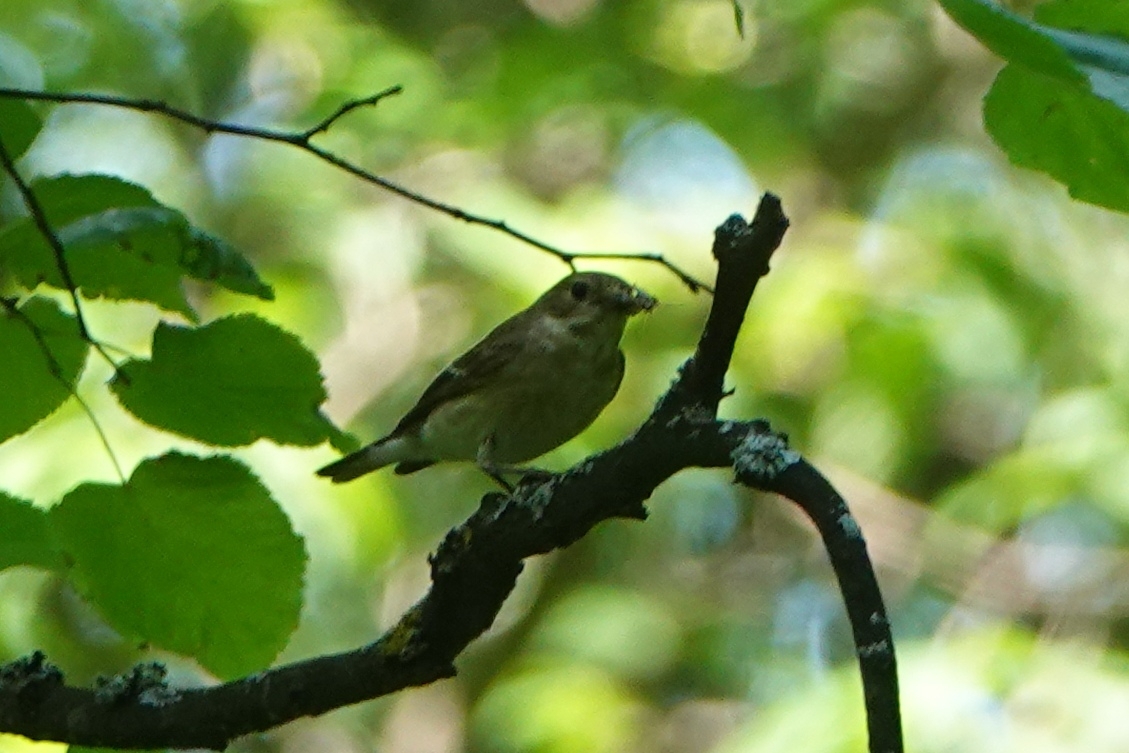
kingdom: Animalia
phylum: Chordata
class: Aves
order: Passeriformes
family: Muscicapidae
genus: Ficedula
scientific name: Ficedula hypoleuca
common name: European pied flycatcher
